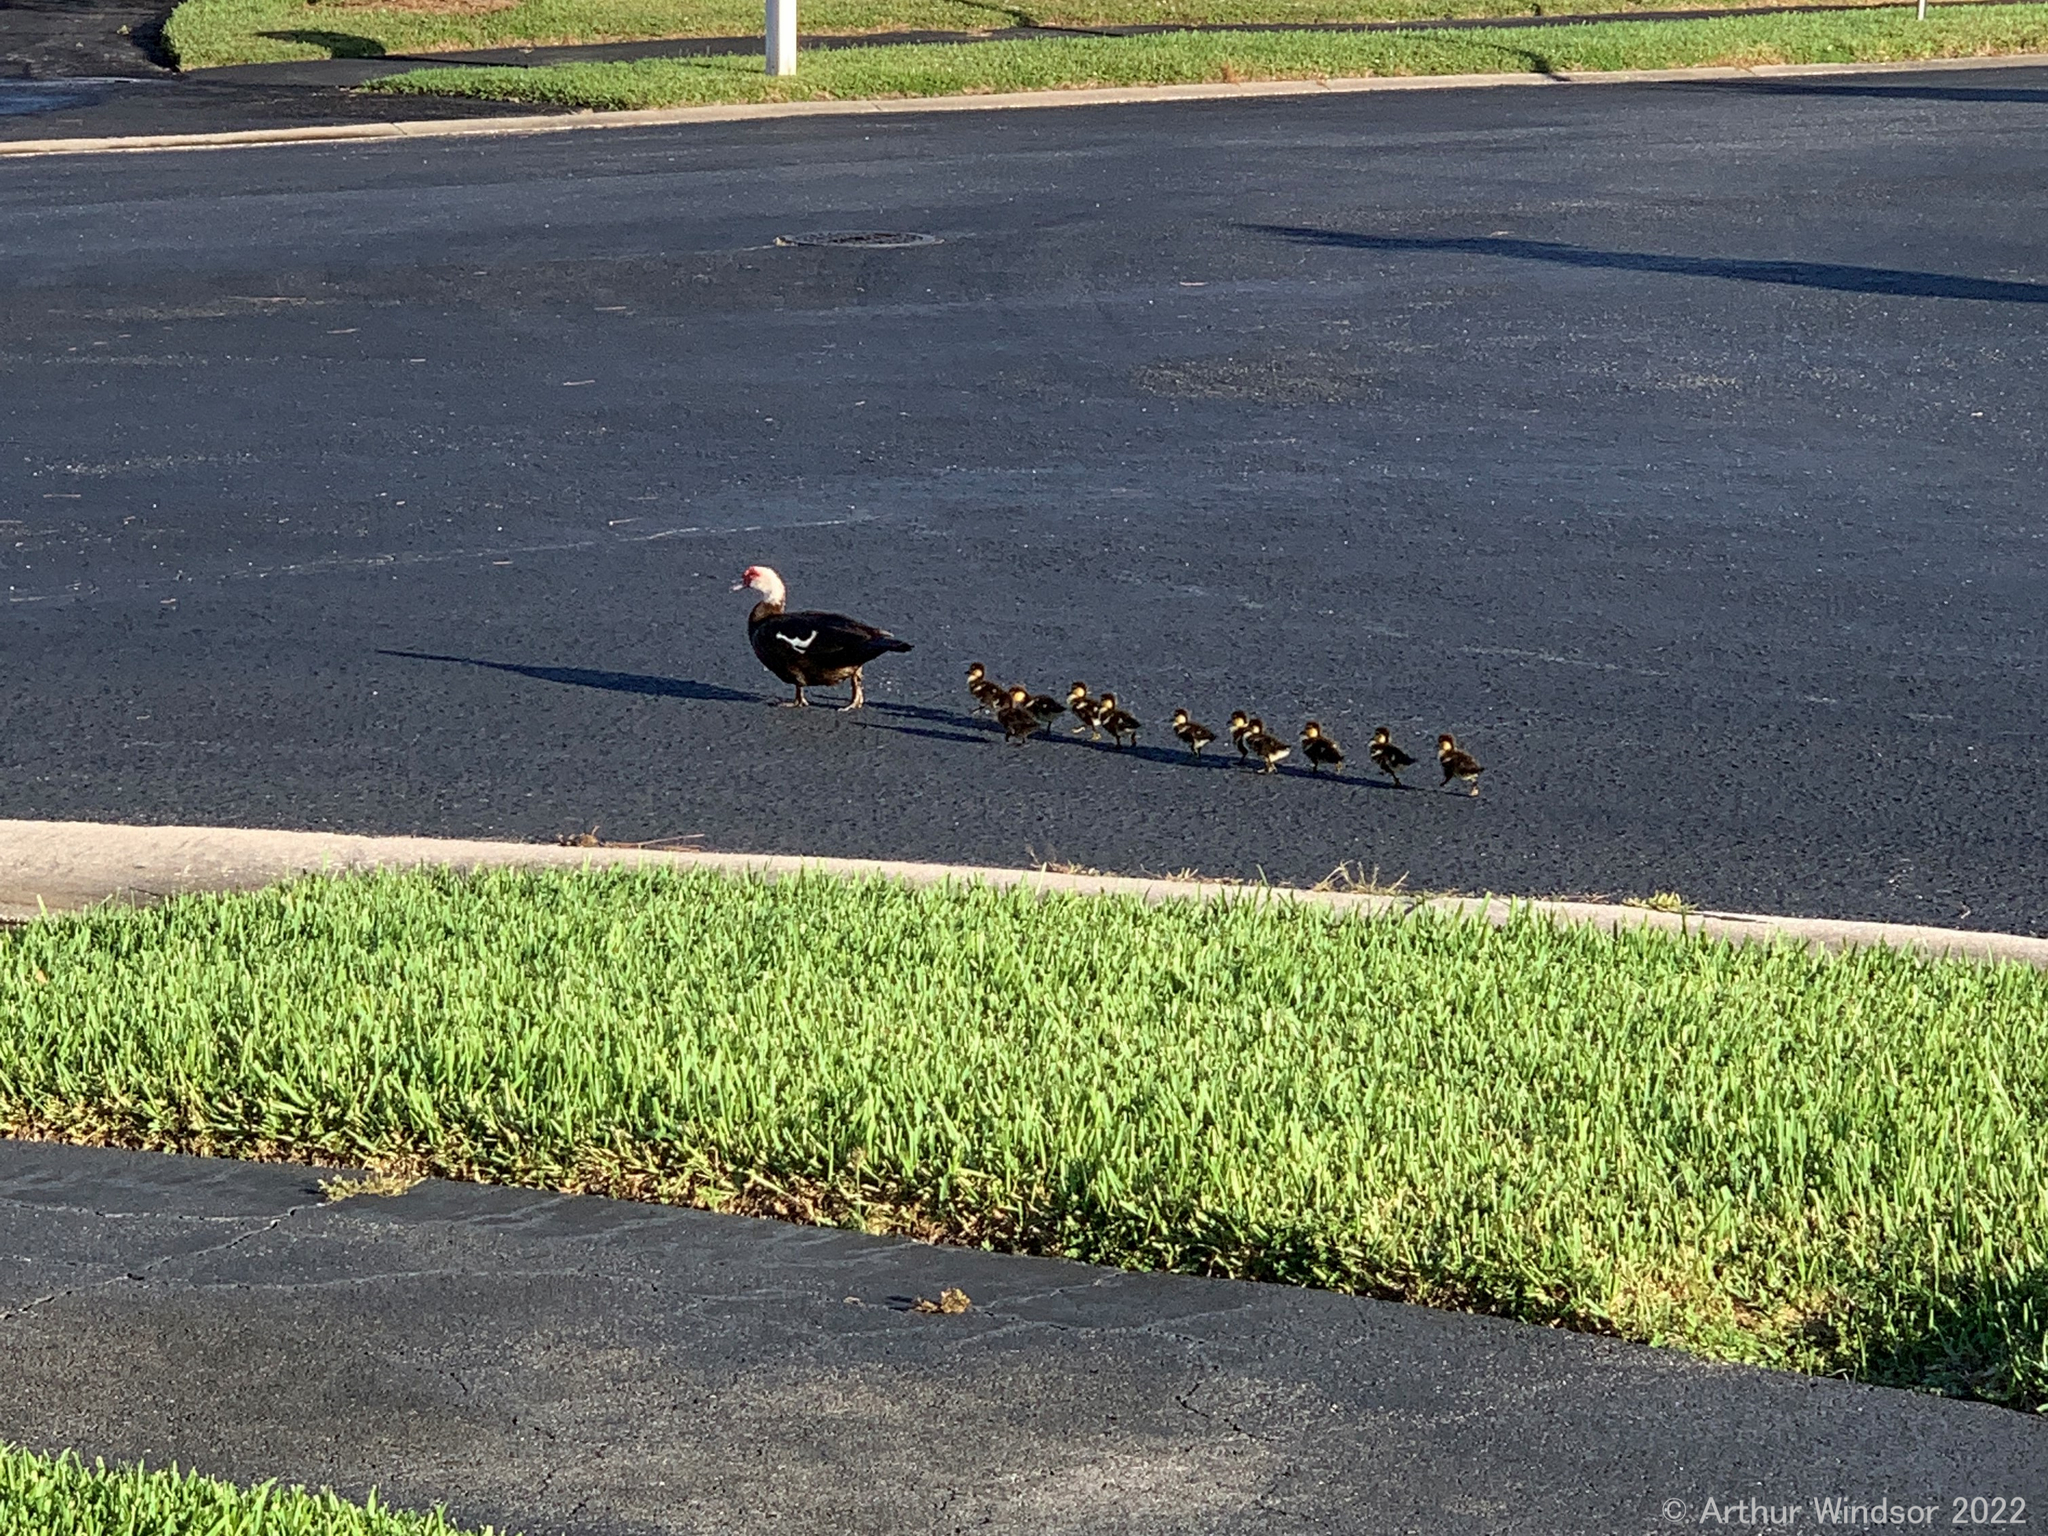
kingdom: Animalia
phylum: Chordata
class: Aves
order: Anseriformes
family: Anatidae
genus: Cairina
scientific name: Cairina moschata
